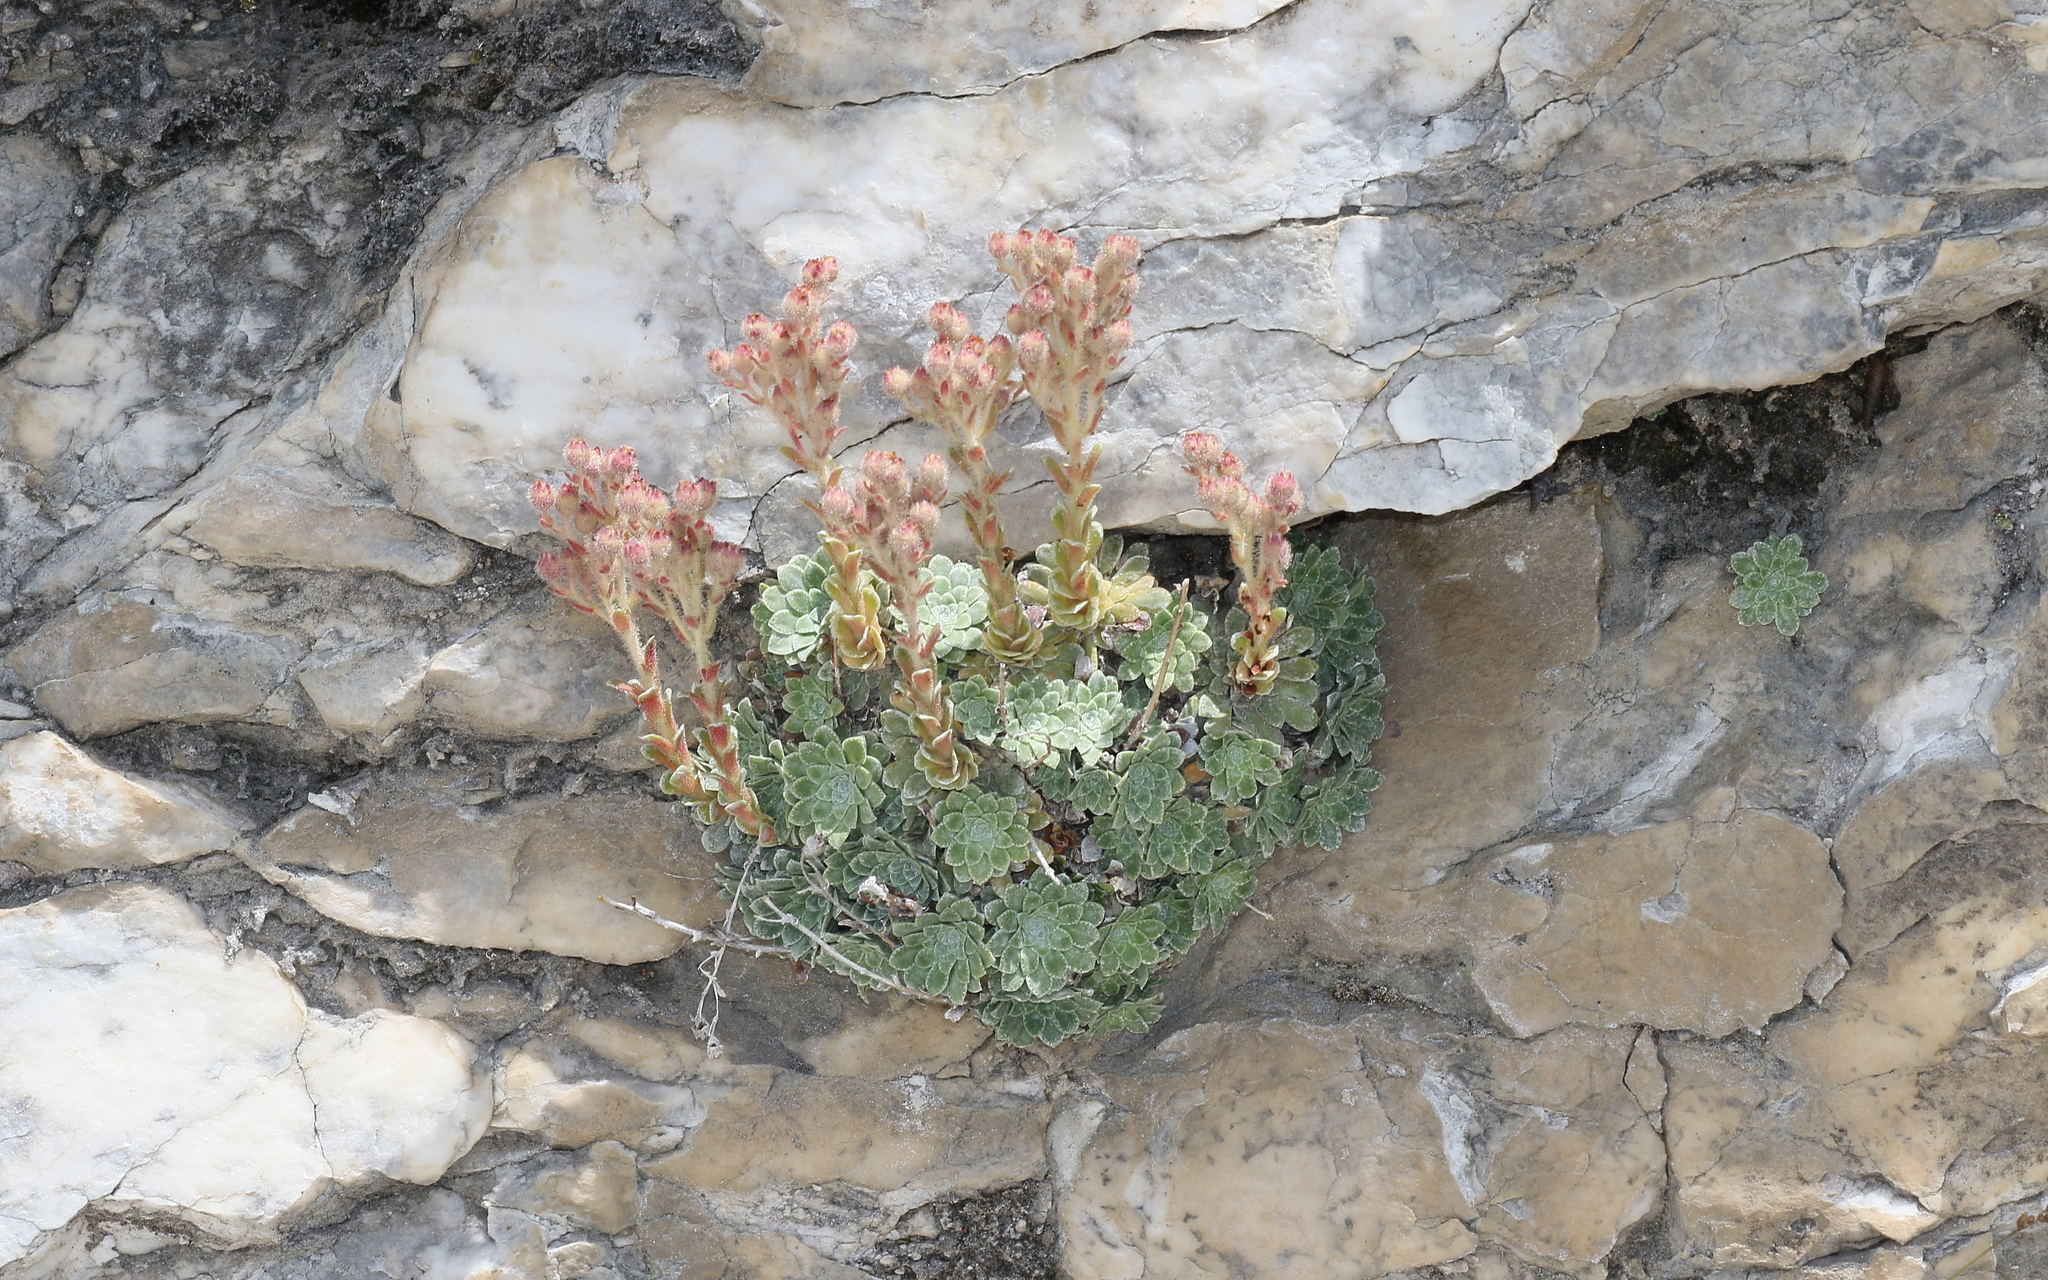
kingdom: Plantae
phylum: Tracheophyta
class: Magnoliopsida
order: Saxifragales
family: Saxifragaceae
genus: Saxifraga
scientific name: Saxifraga stribrnyi
